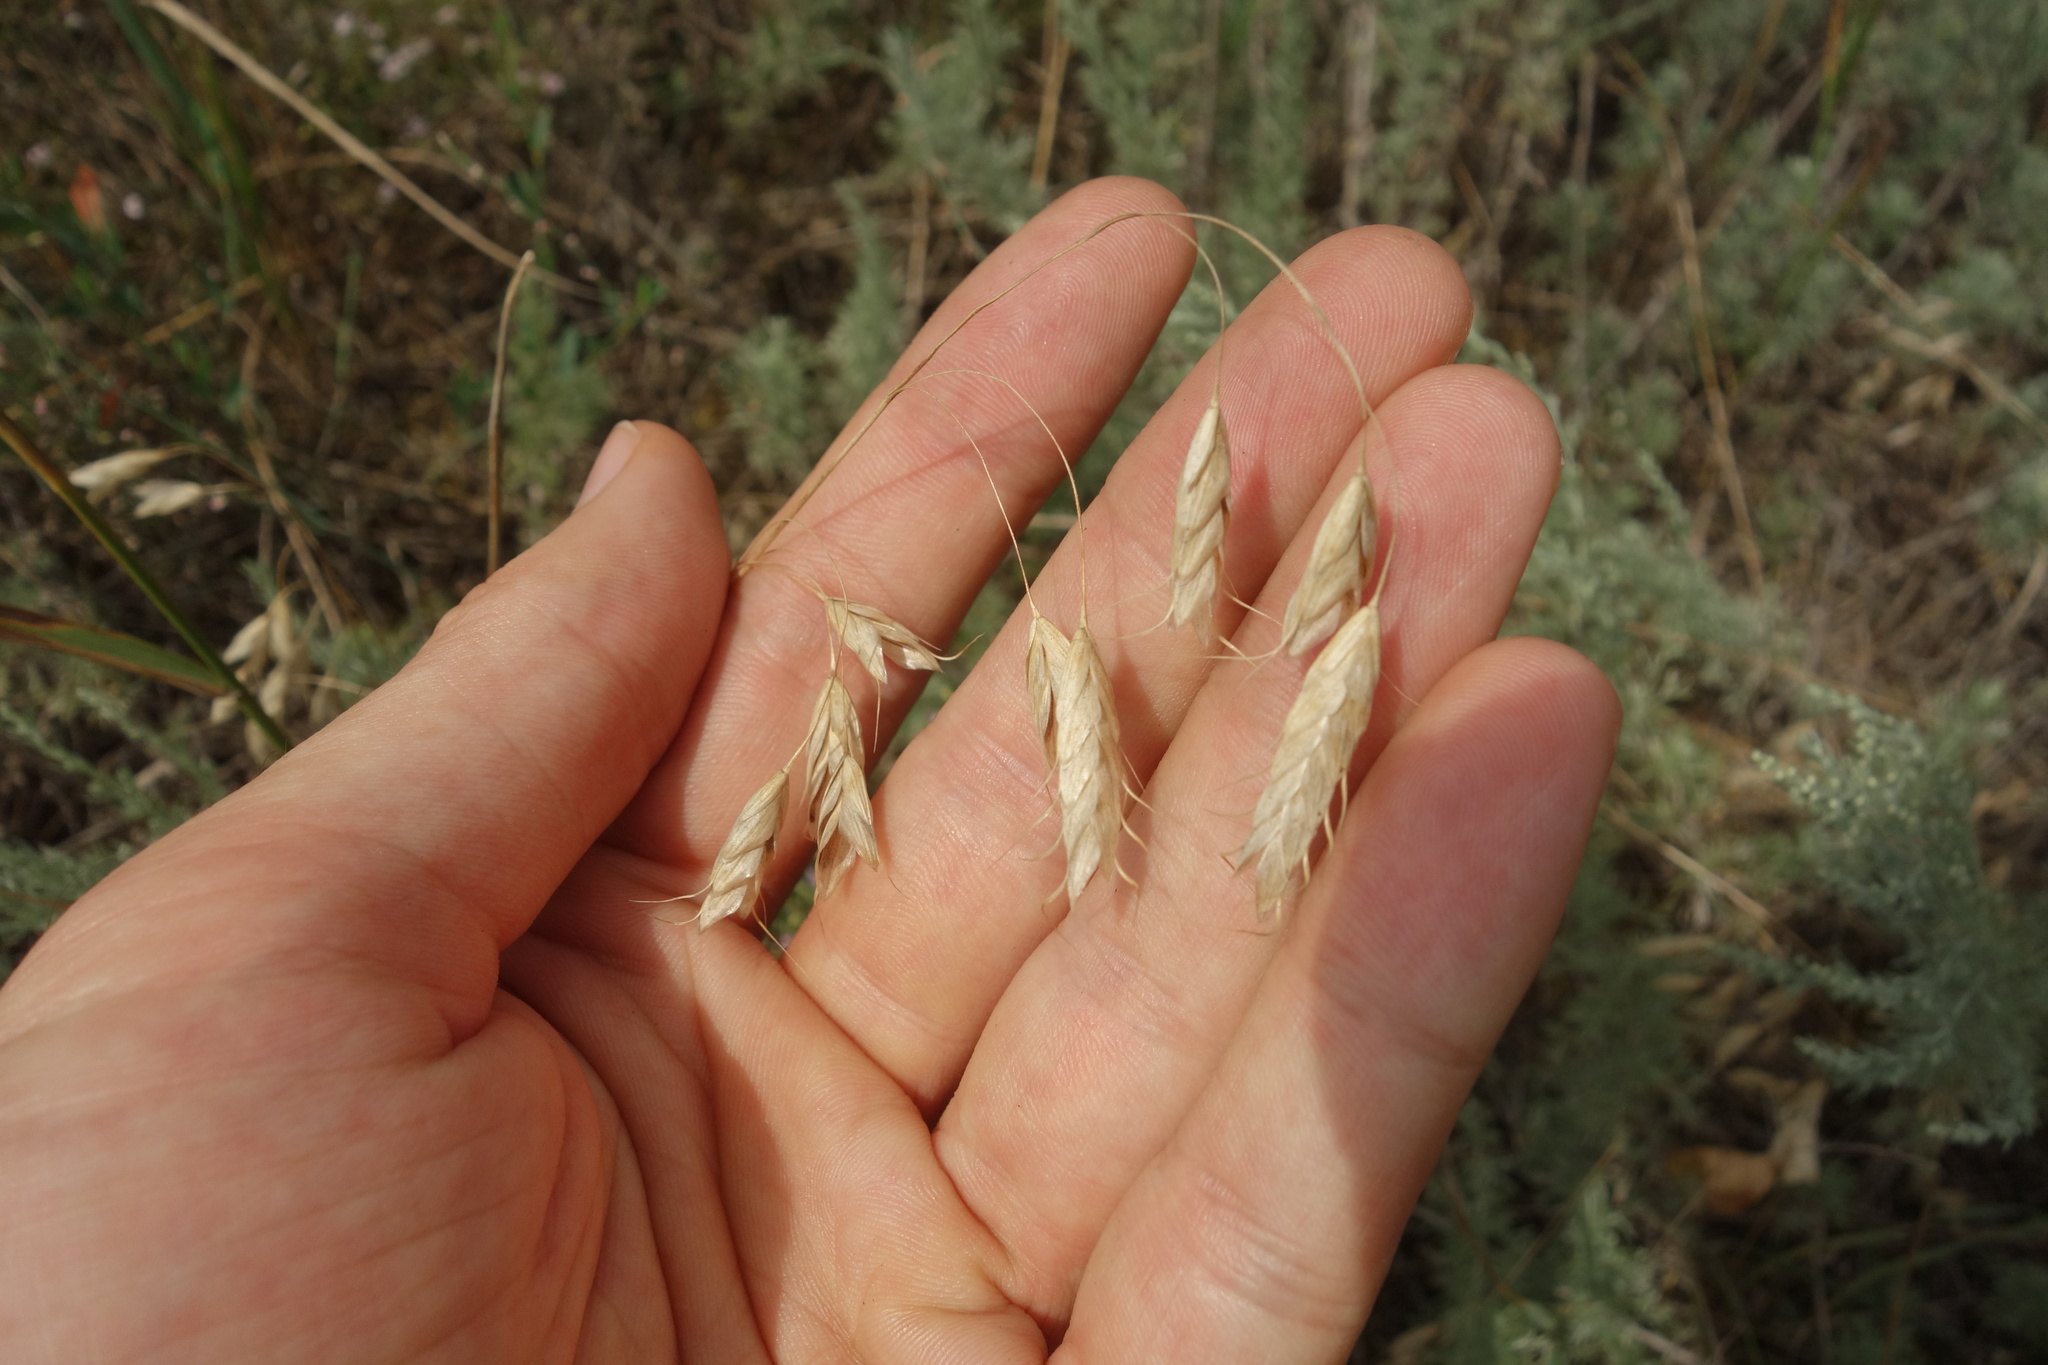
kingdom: Plantae
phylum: Tracheophyta
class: Liliopsida
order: Poales
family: Poaceae
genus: Bromus
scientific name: Bromus squarrosus
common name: Corn brome
